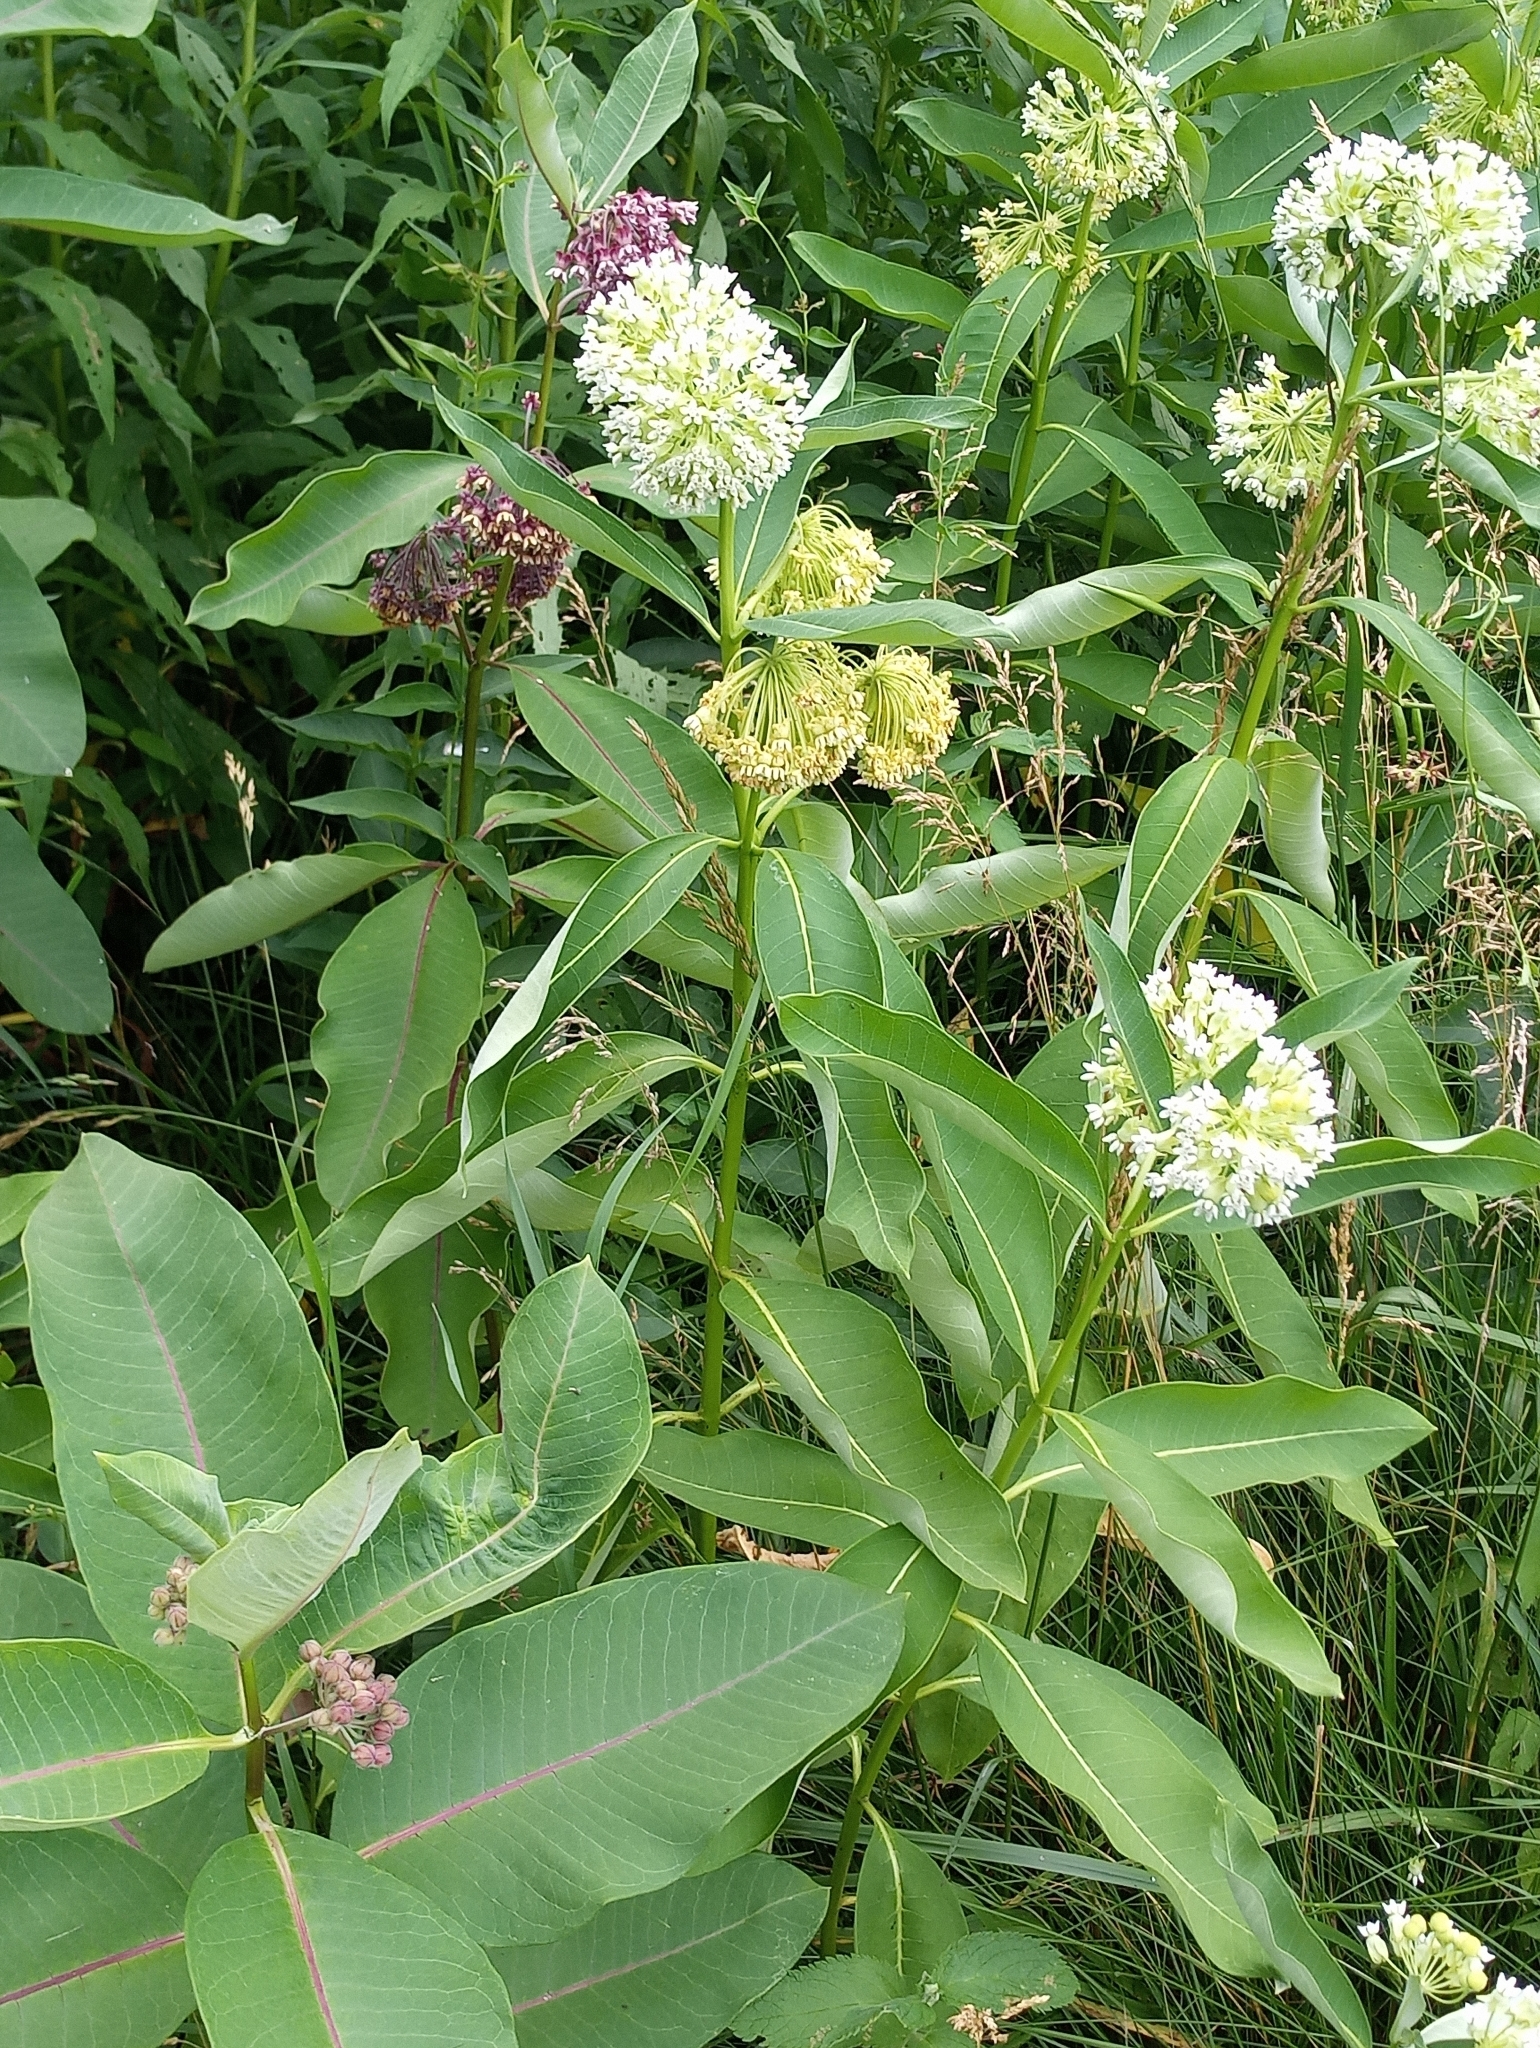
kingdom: Plantae
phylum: Tracheophyta
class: Magnoliopsida
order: Gentianales
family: Apocynaceae
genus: Asclepias
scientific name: Asclepias syriaca
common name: Common milkweed
